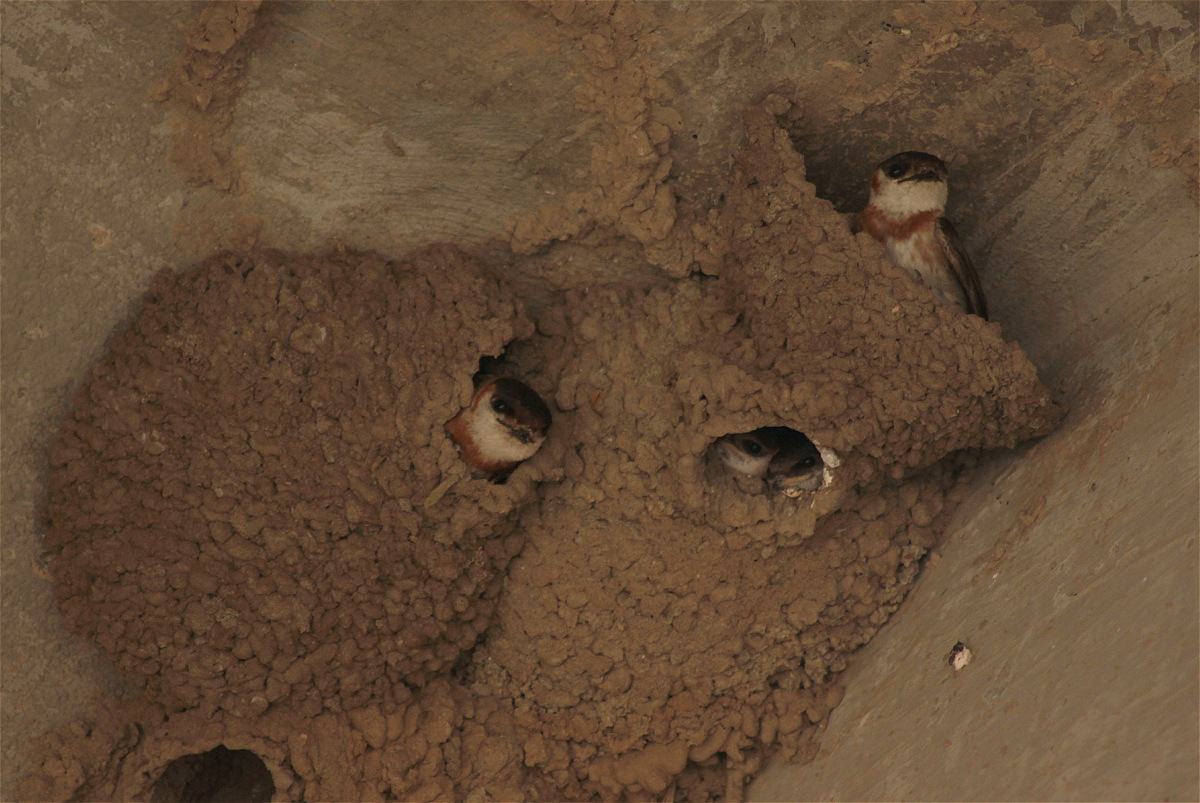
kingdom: Animalia
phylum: Chordata
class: Aves
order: Passeriformes
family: Hirundinidae
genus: Petrochelidon
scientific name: Petrochelidon rufocollaris
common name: Chestnut-collared swallow
